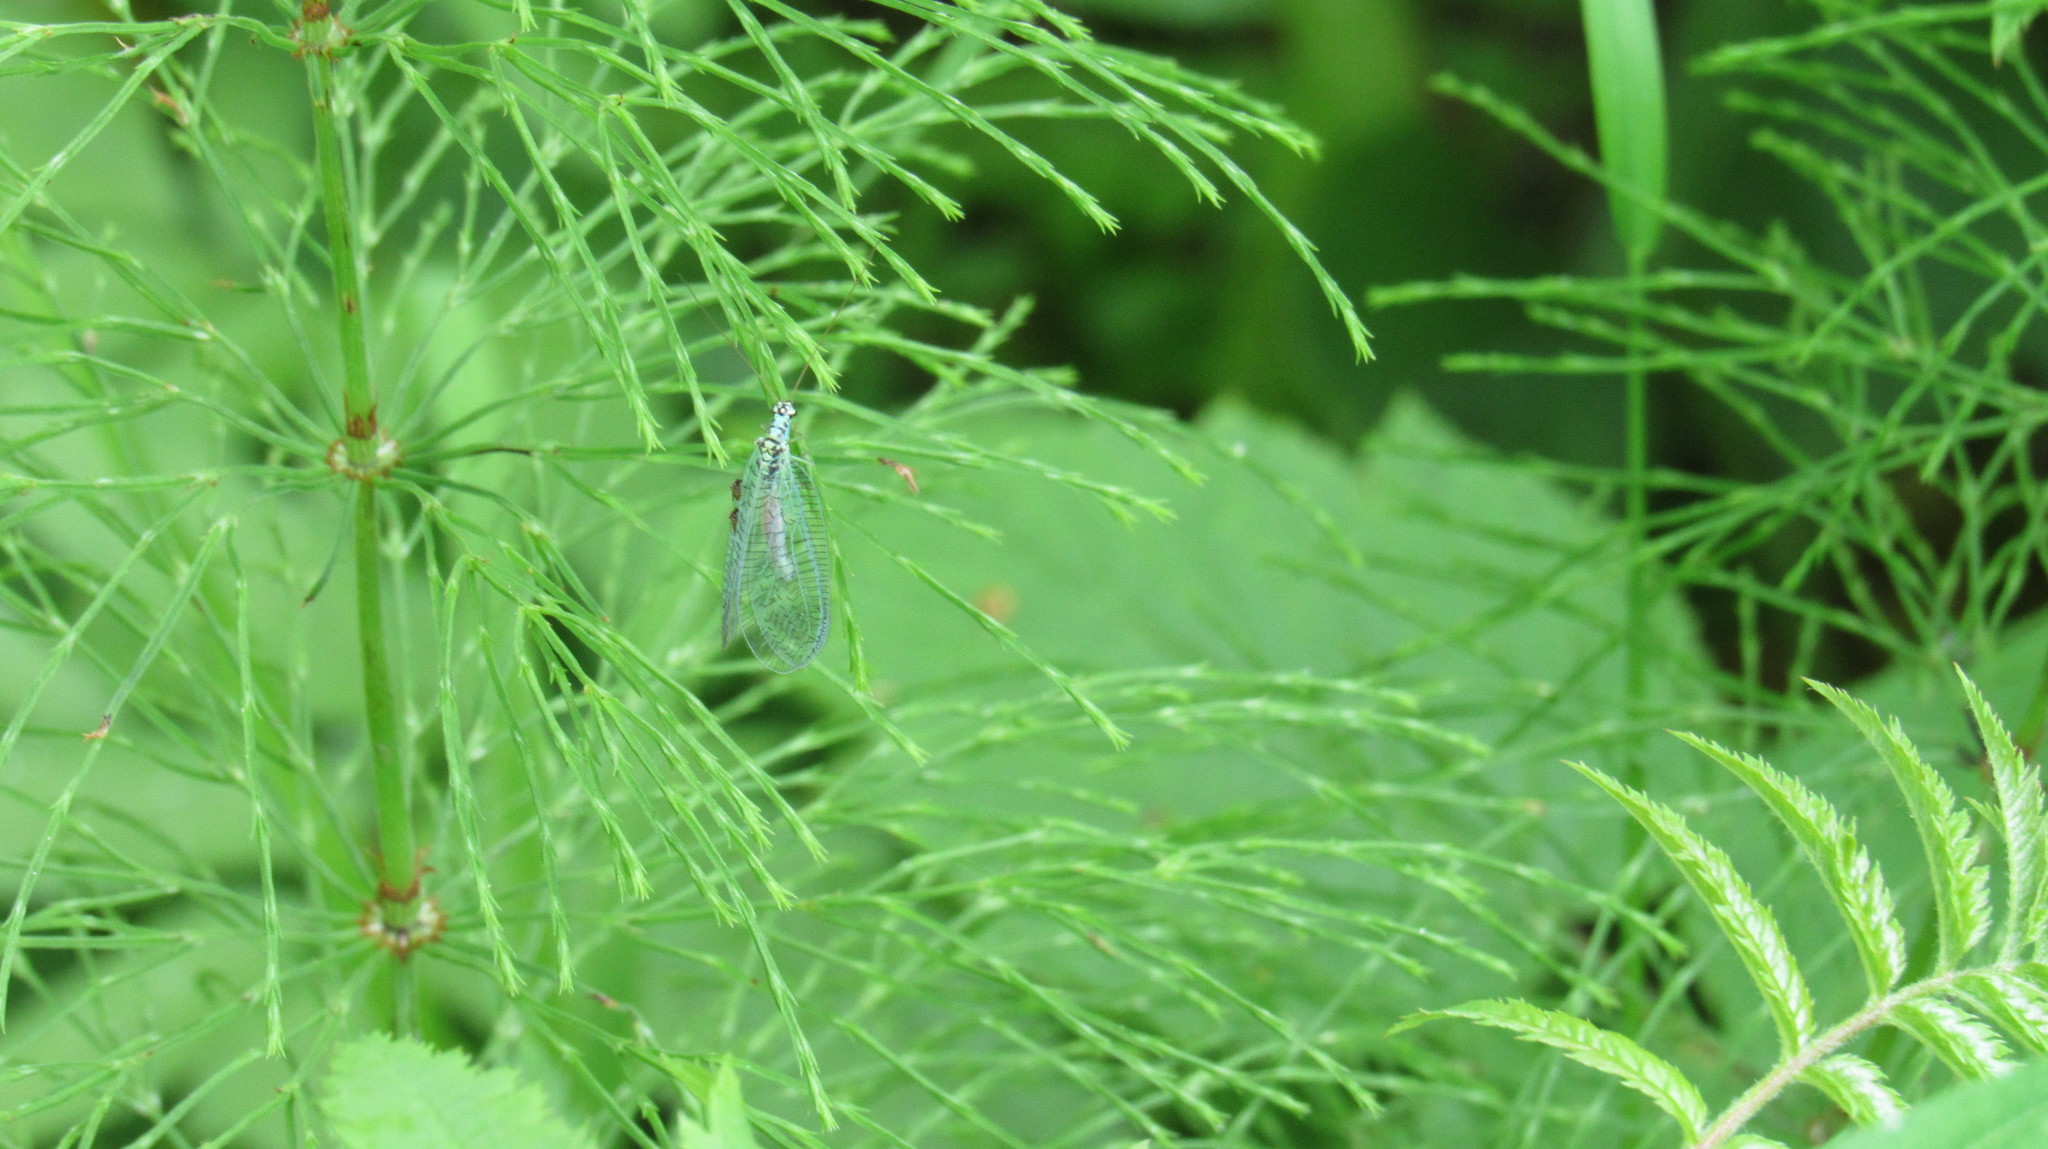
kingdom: Animalia
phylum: Arthropoda
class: Insecta
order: Neuroptera
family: Chrysopidae
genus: Chrysopa
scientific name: Chrysopa perla
